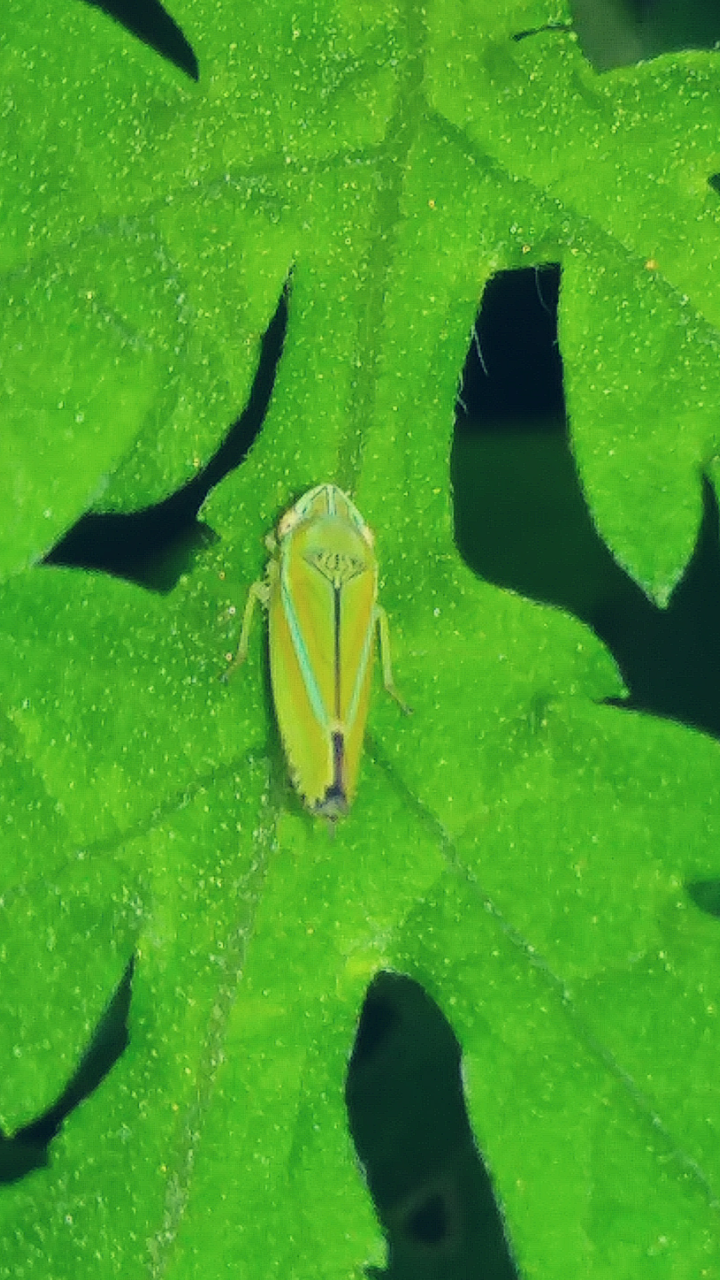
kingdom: Animalia
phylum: Arthropoda
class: Insecta
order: Hemiptera
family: Cicadellidae
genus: Graphocephala
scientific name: Graphocephala versuta
